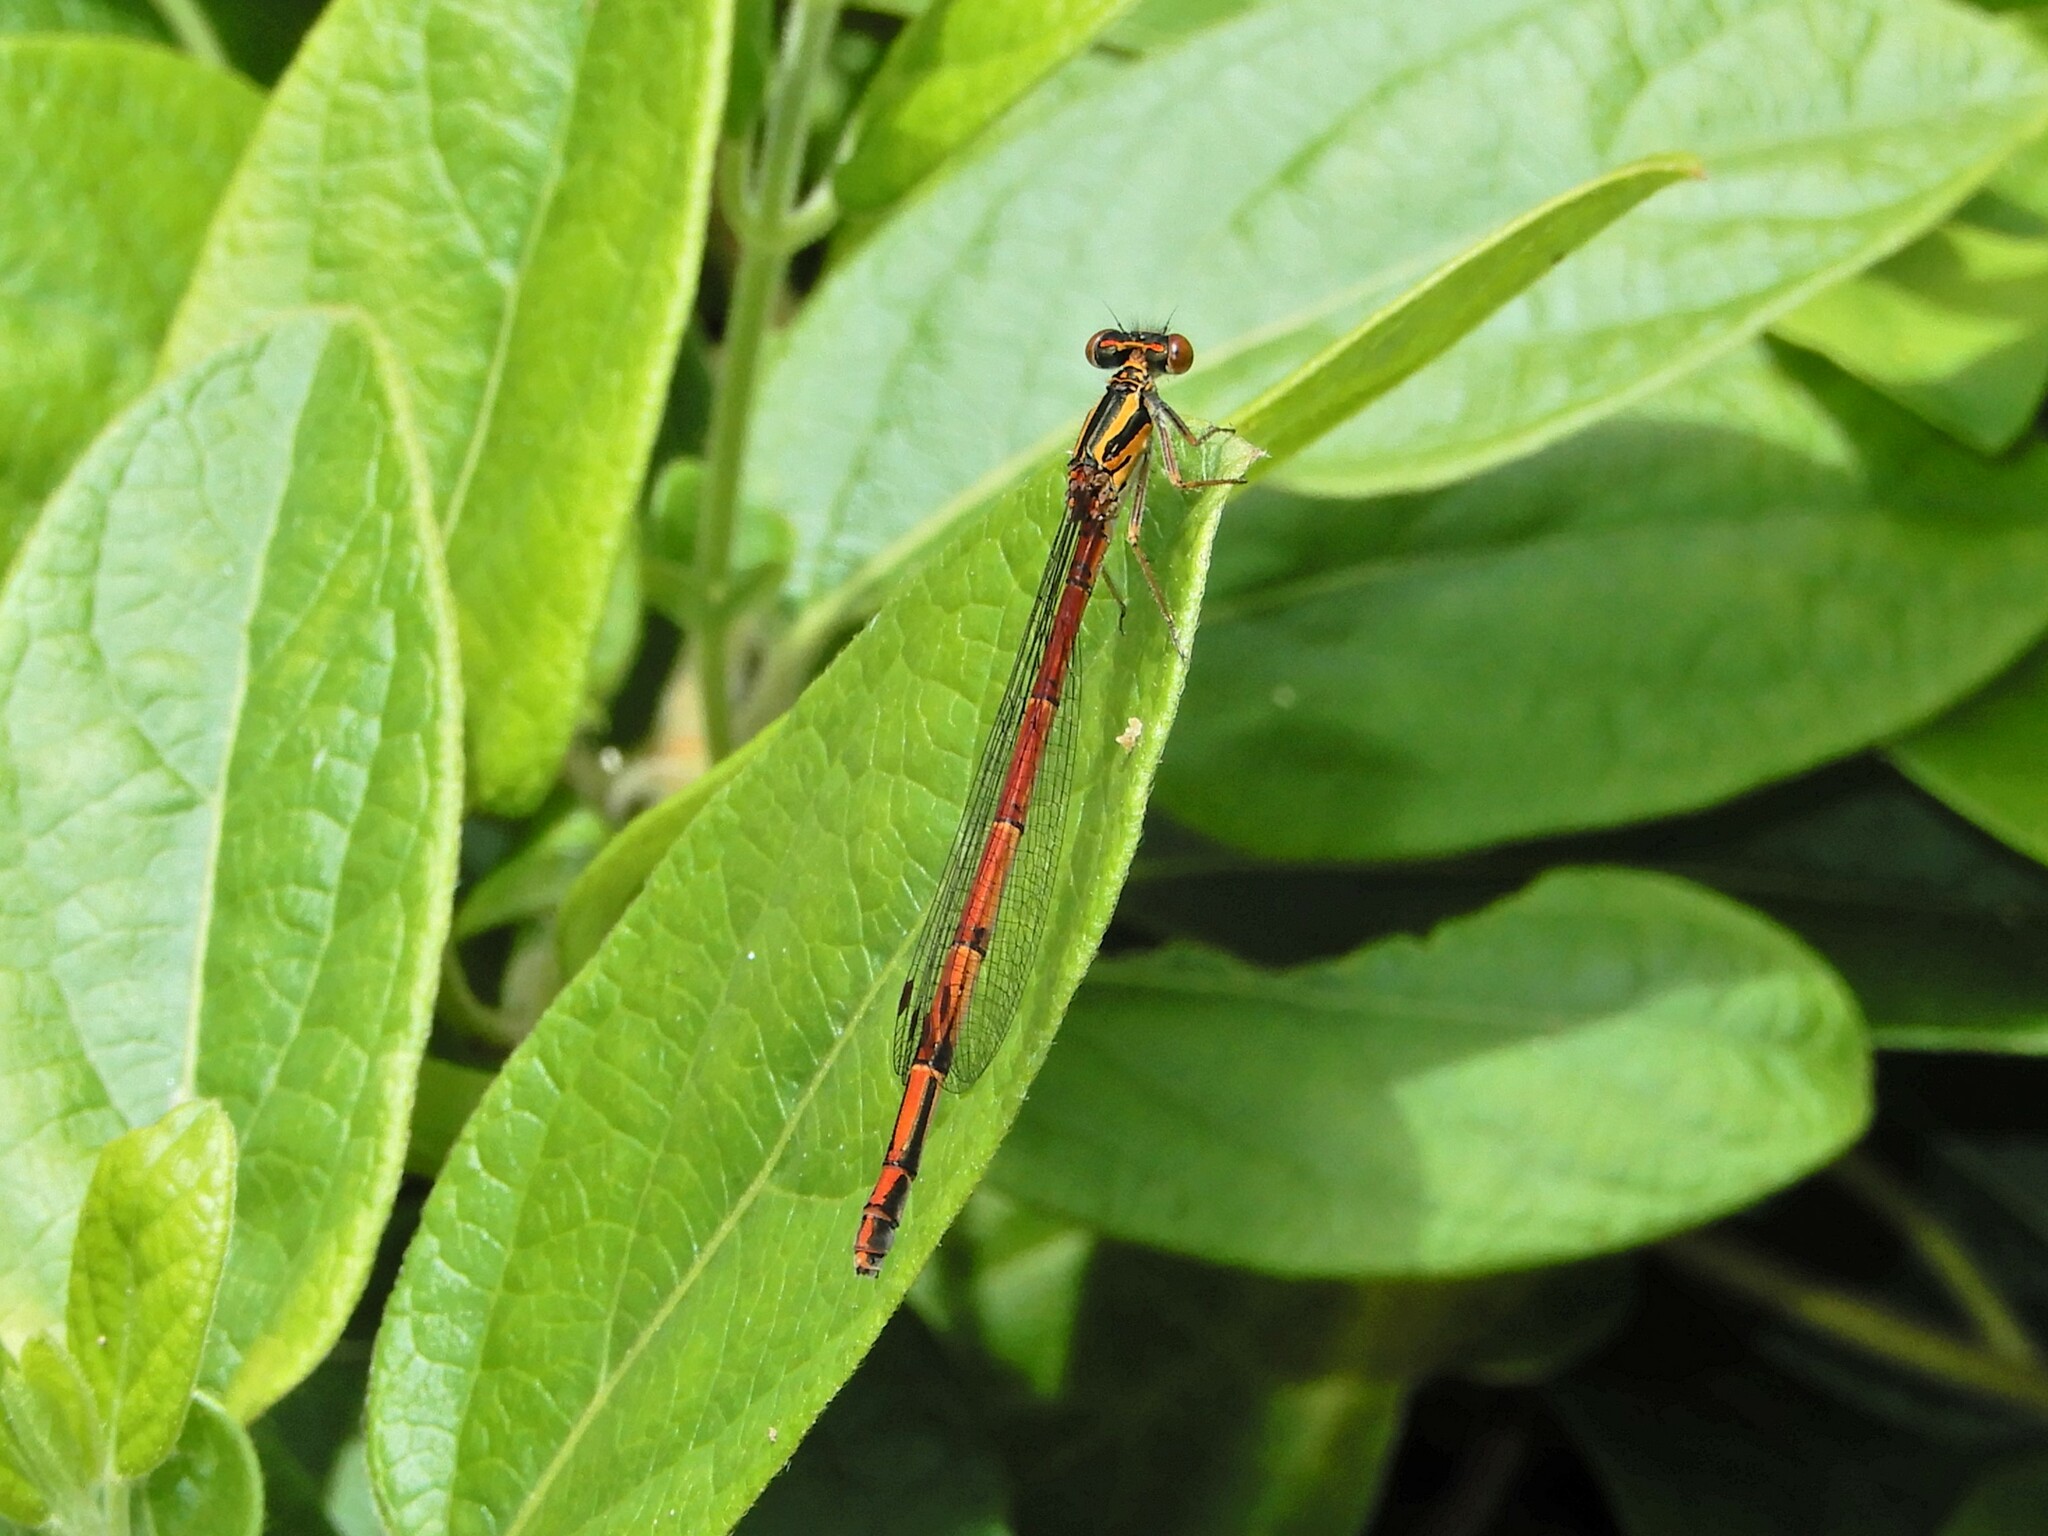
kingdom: Animalia
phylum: Arthropoda
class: Insecta
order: Odonata
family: Coenagrionidae
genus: Xanthocnemis
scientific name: Xanthocnemis zealandica
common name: Common redcoat damselfly
